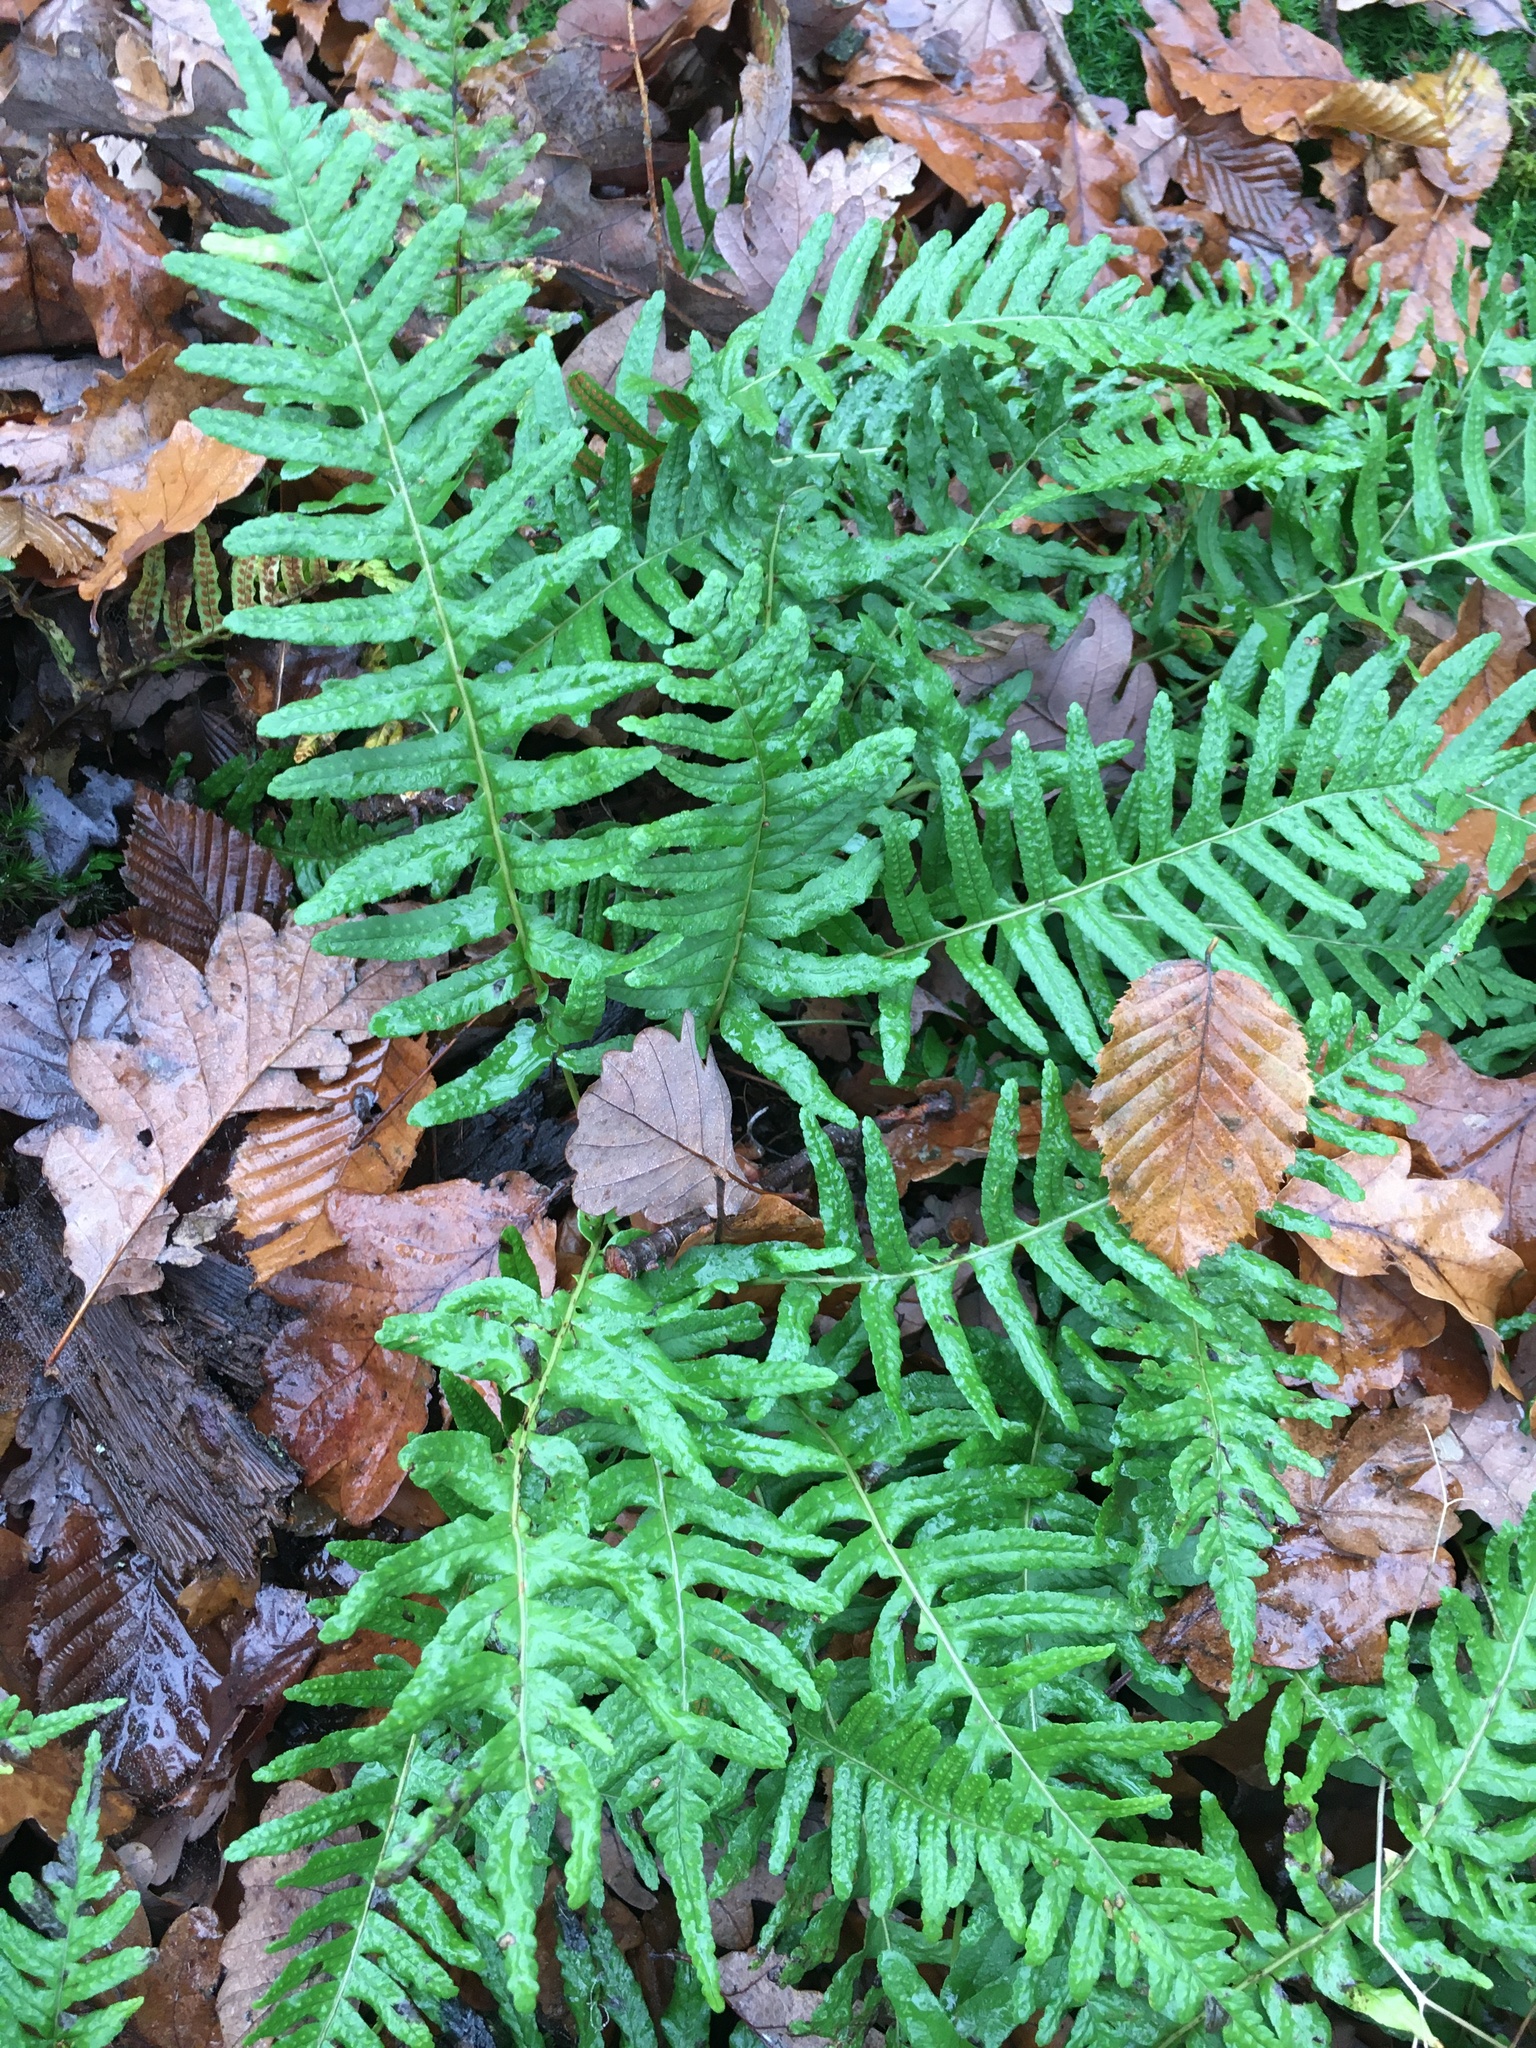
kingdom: Plantae
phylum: Tracheophyta
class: Polypodiopsida
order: Polypodiales
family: Polypodiaceae
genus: Polypodium
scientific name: Polypodium vulgare
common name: Common polypody
